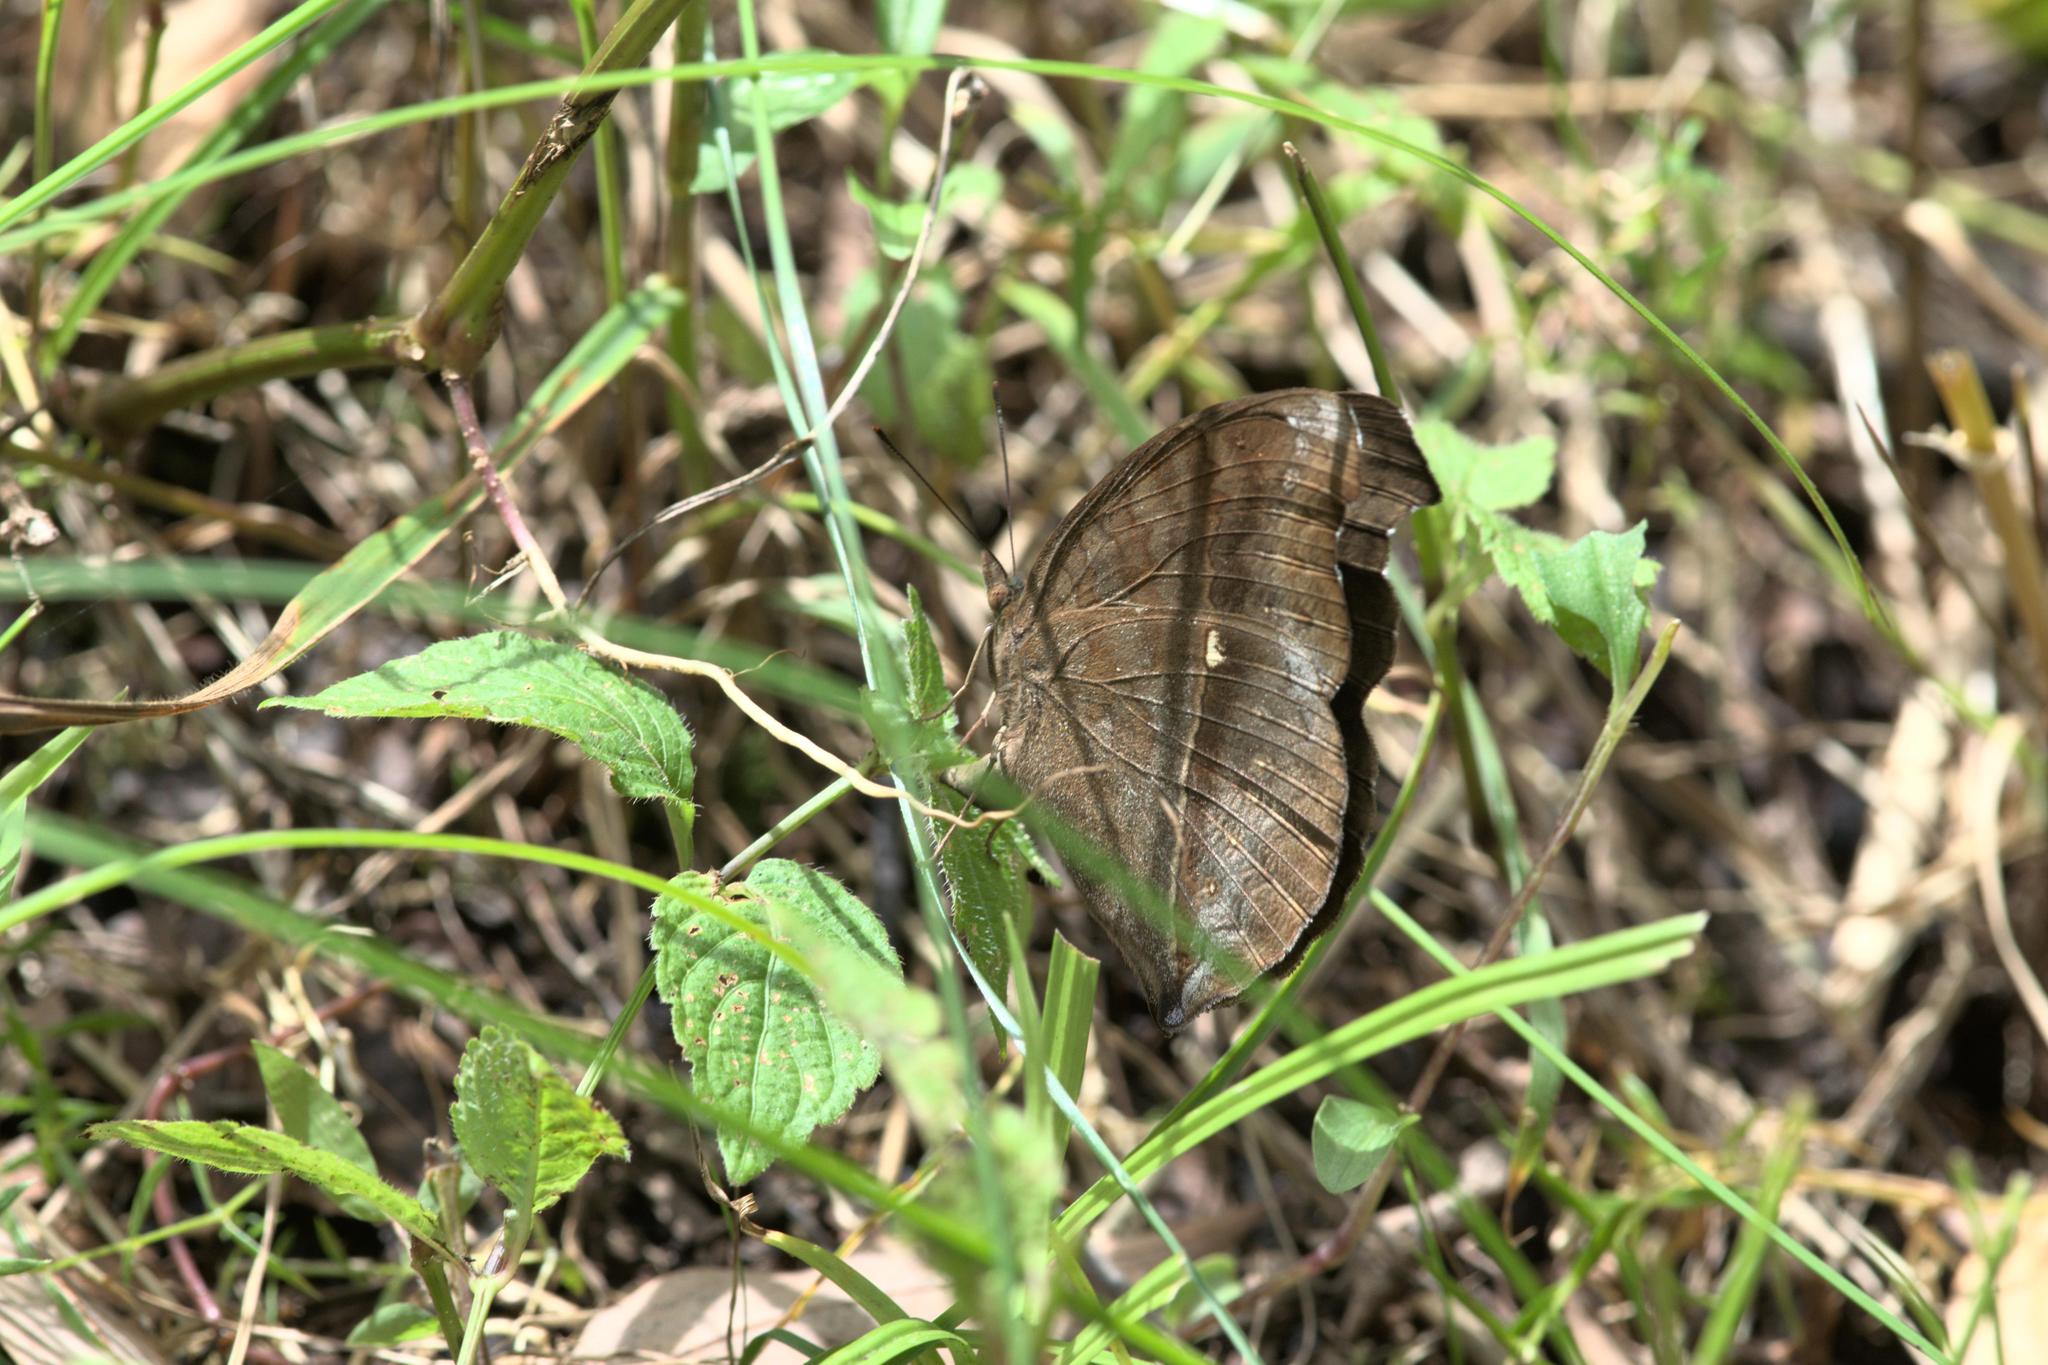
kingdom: Animalia
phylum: Arthropoda
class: Insecta
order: Lepidoptera
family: Nymphalidae
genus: Junonia
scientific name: Junonia iphita
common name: Chocolate pansy
